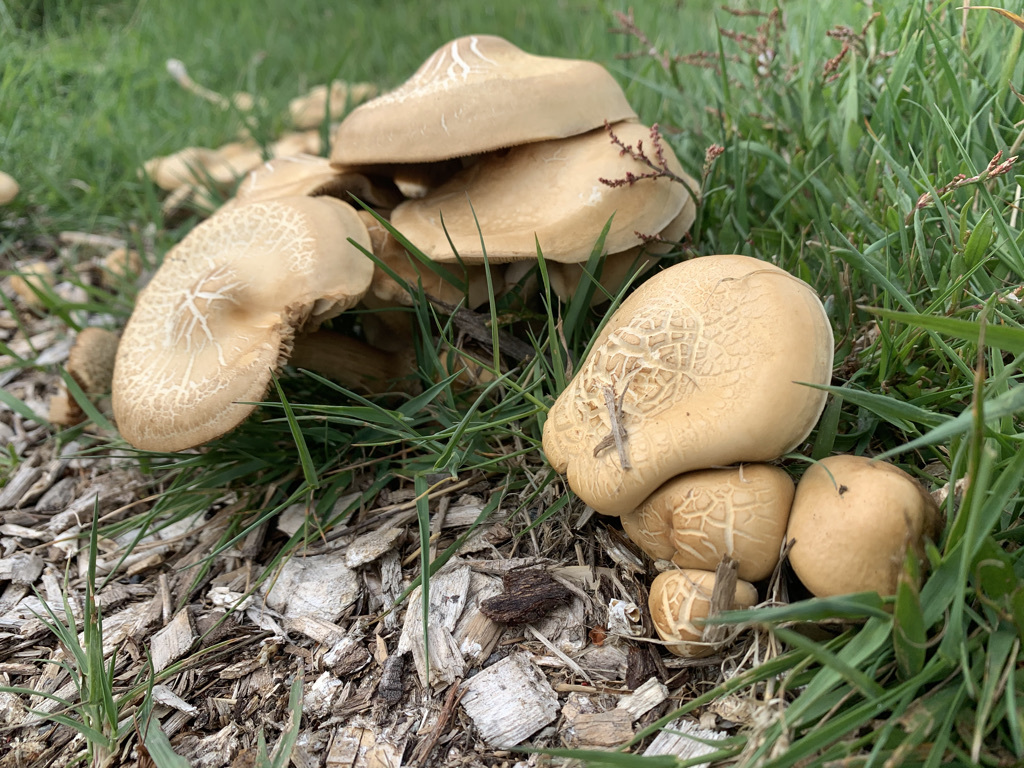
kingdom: Fungi
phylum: Basidiomycota
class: Agaricomycetes
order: Agaricales
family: Strophariaceae
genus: Agrocybe
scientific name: Agrocybe praecox
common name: Spring fieldcap
